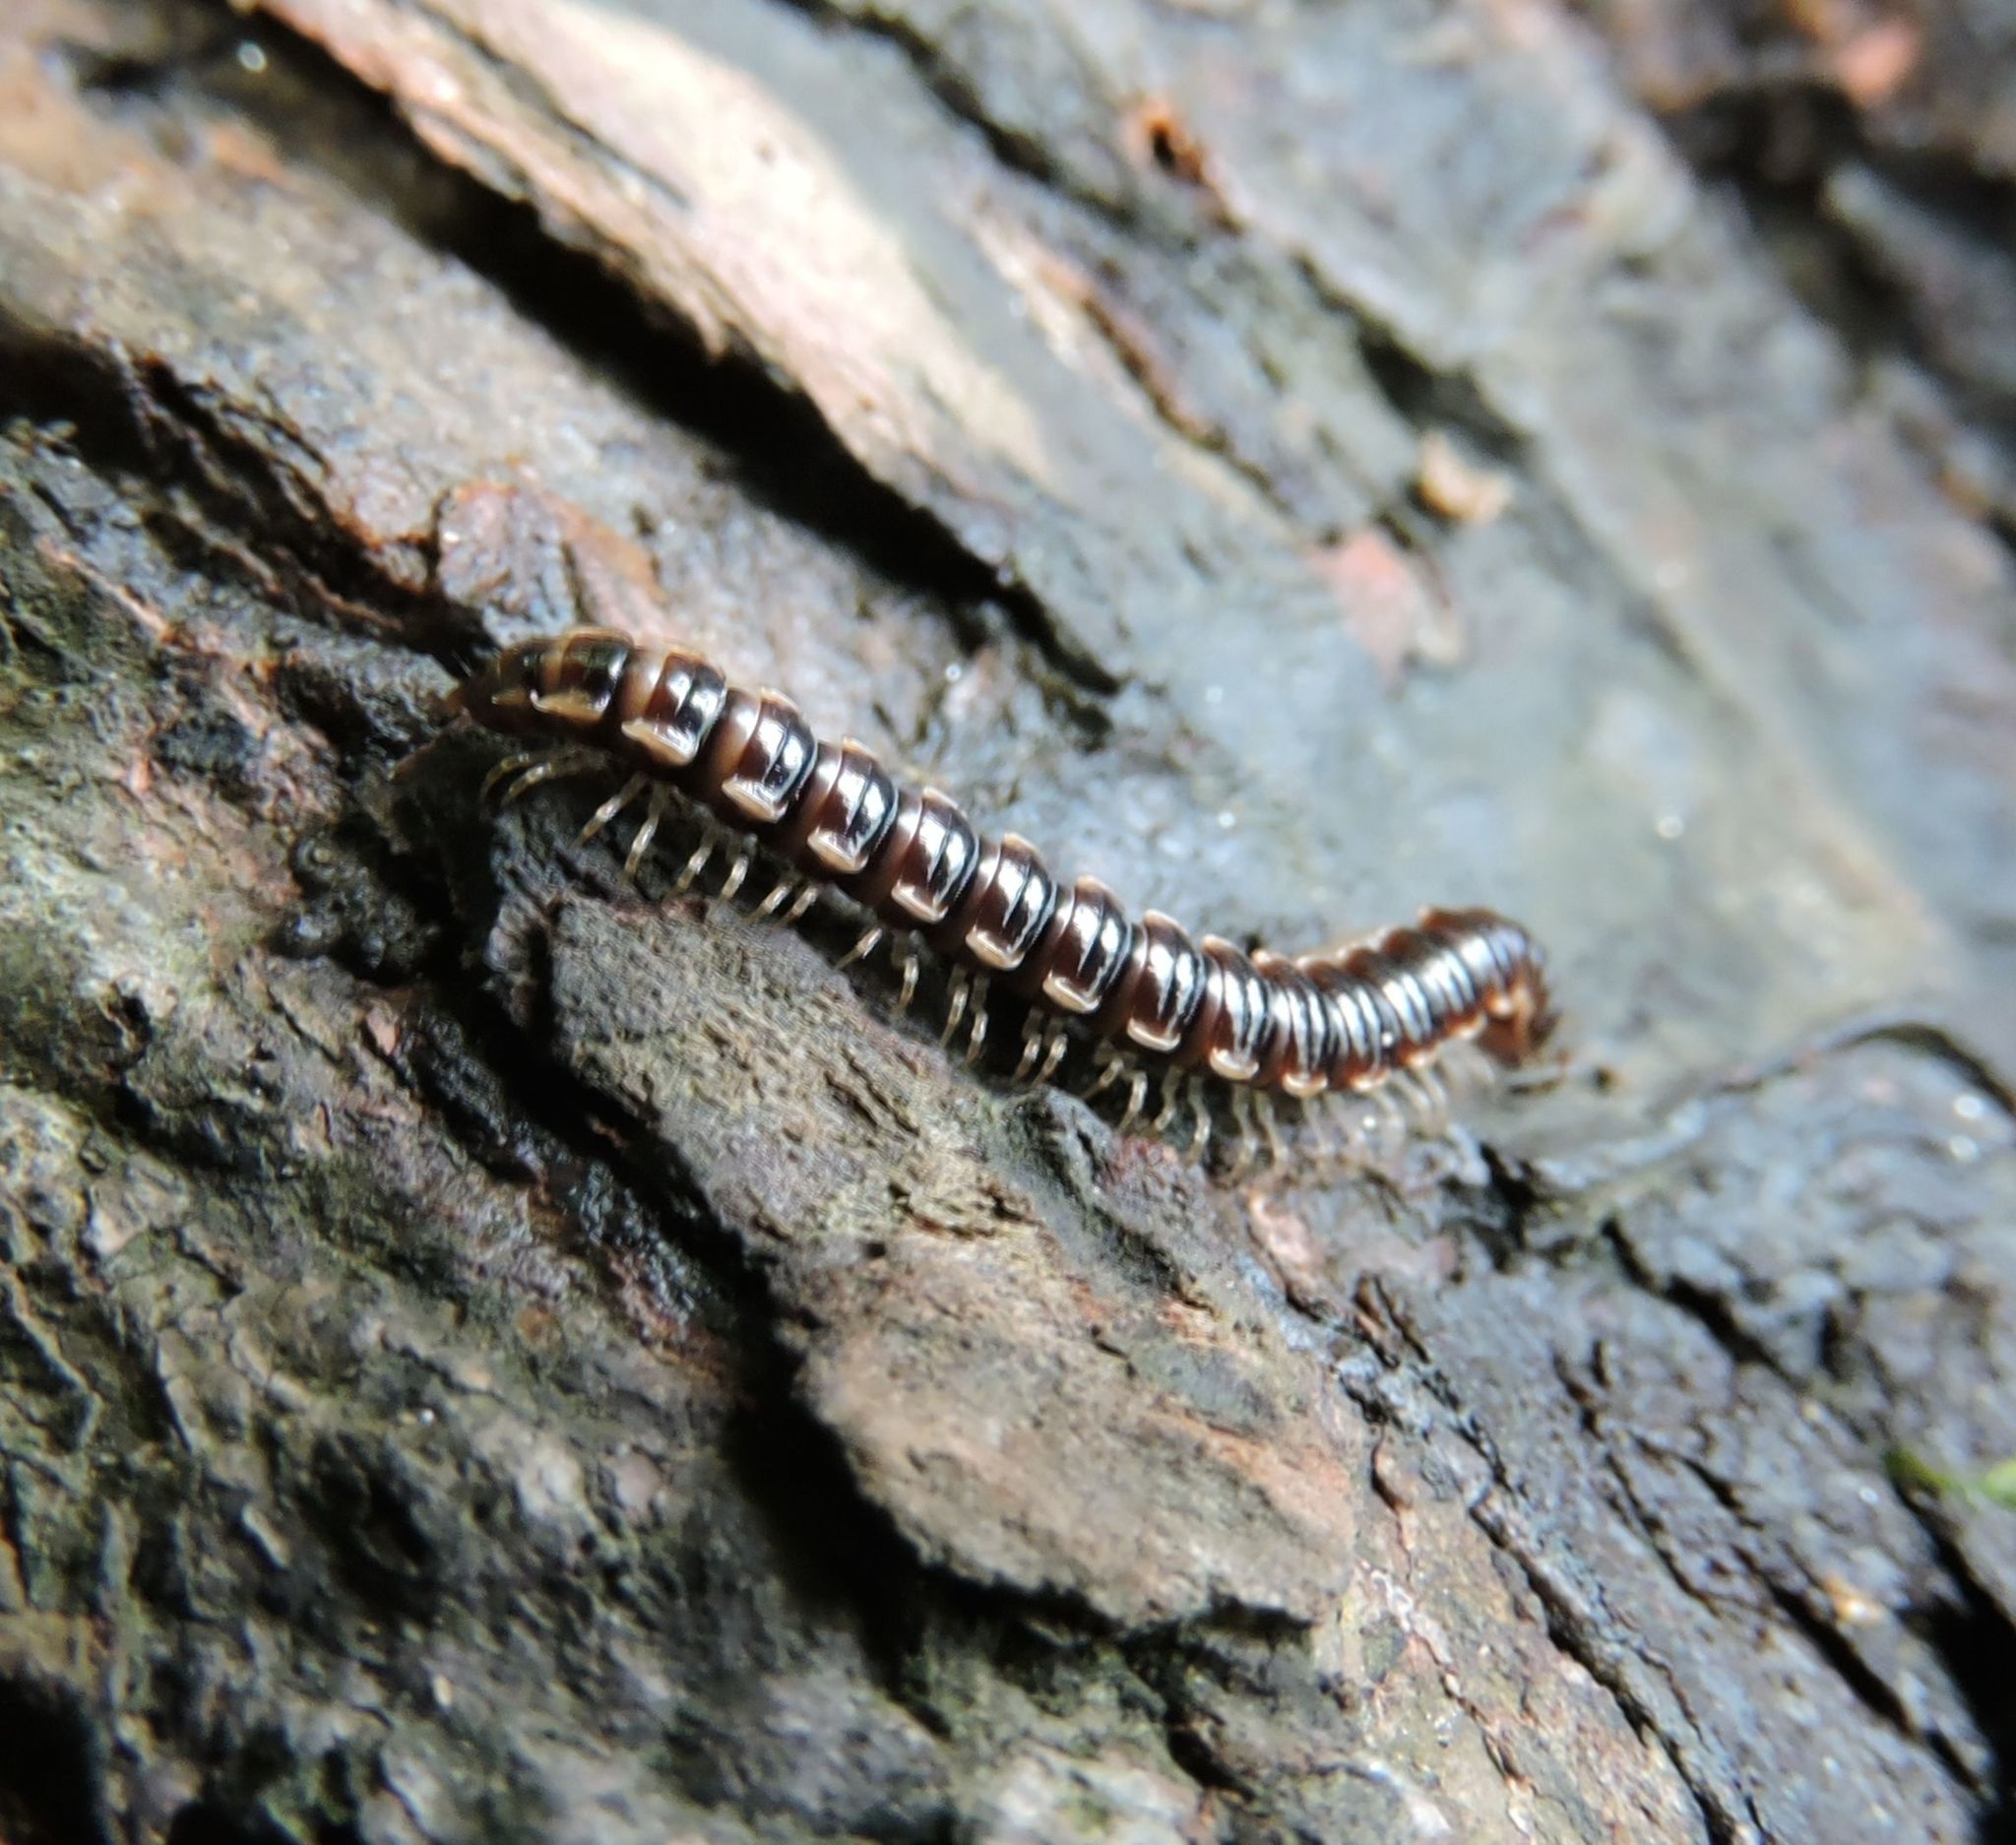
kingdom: Animalia
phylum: Arthropoda
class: Diplopoda
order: Polydesmida
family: Paradoxosomatidae
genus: Oxidus
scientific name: Oxidus gracilis
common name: Greenhouse millipede
